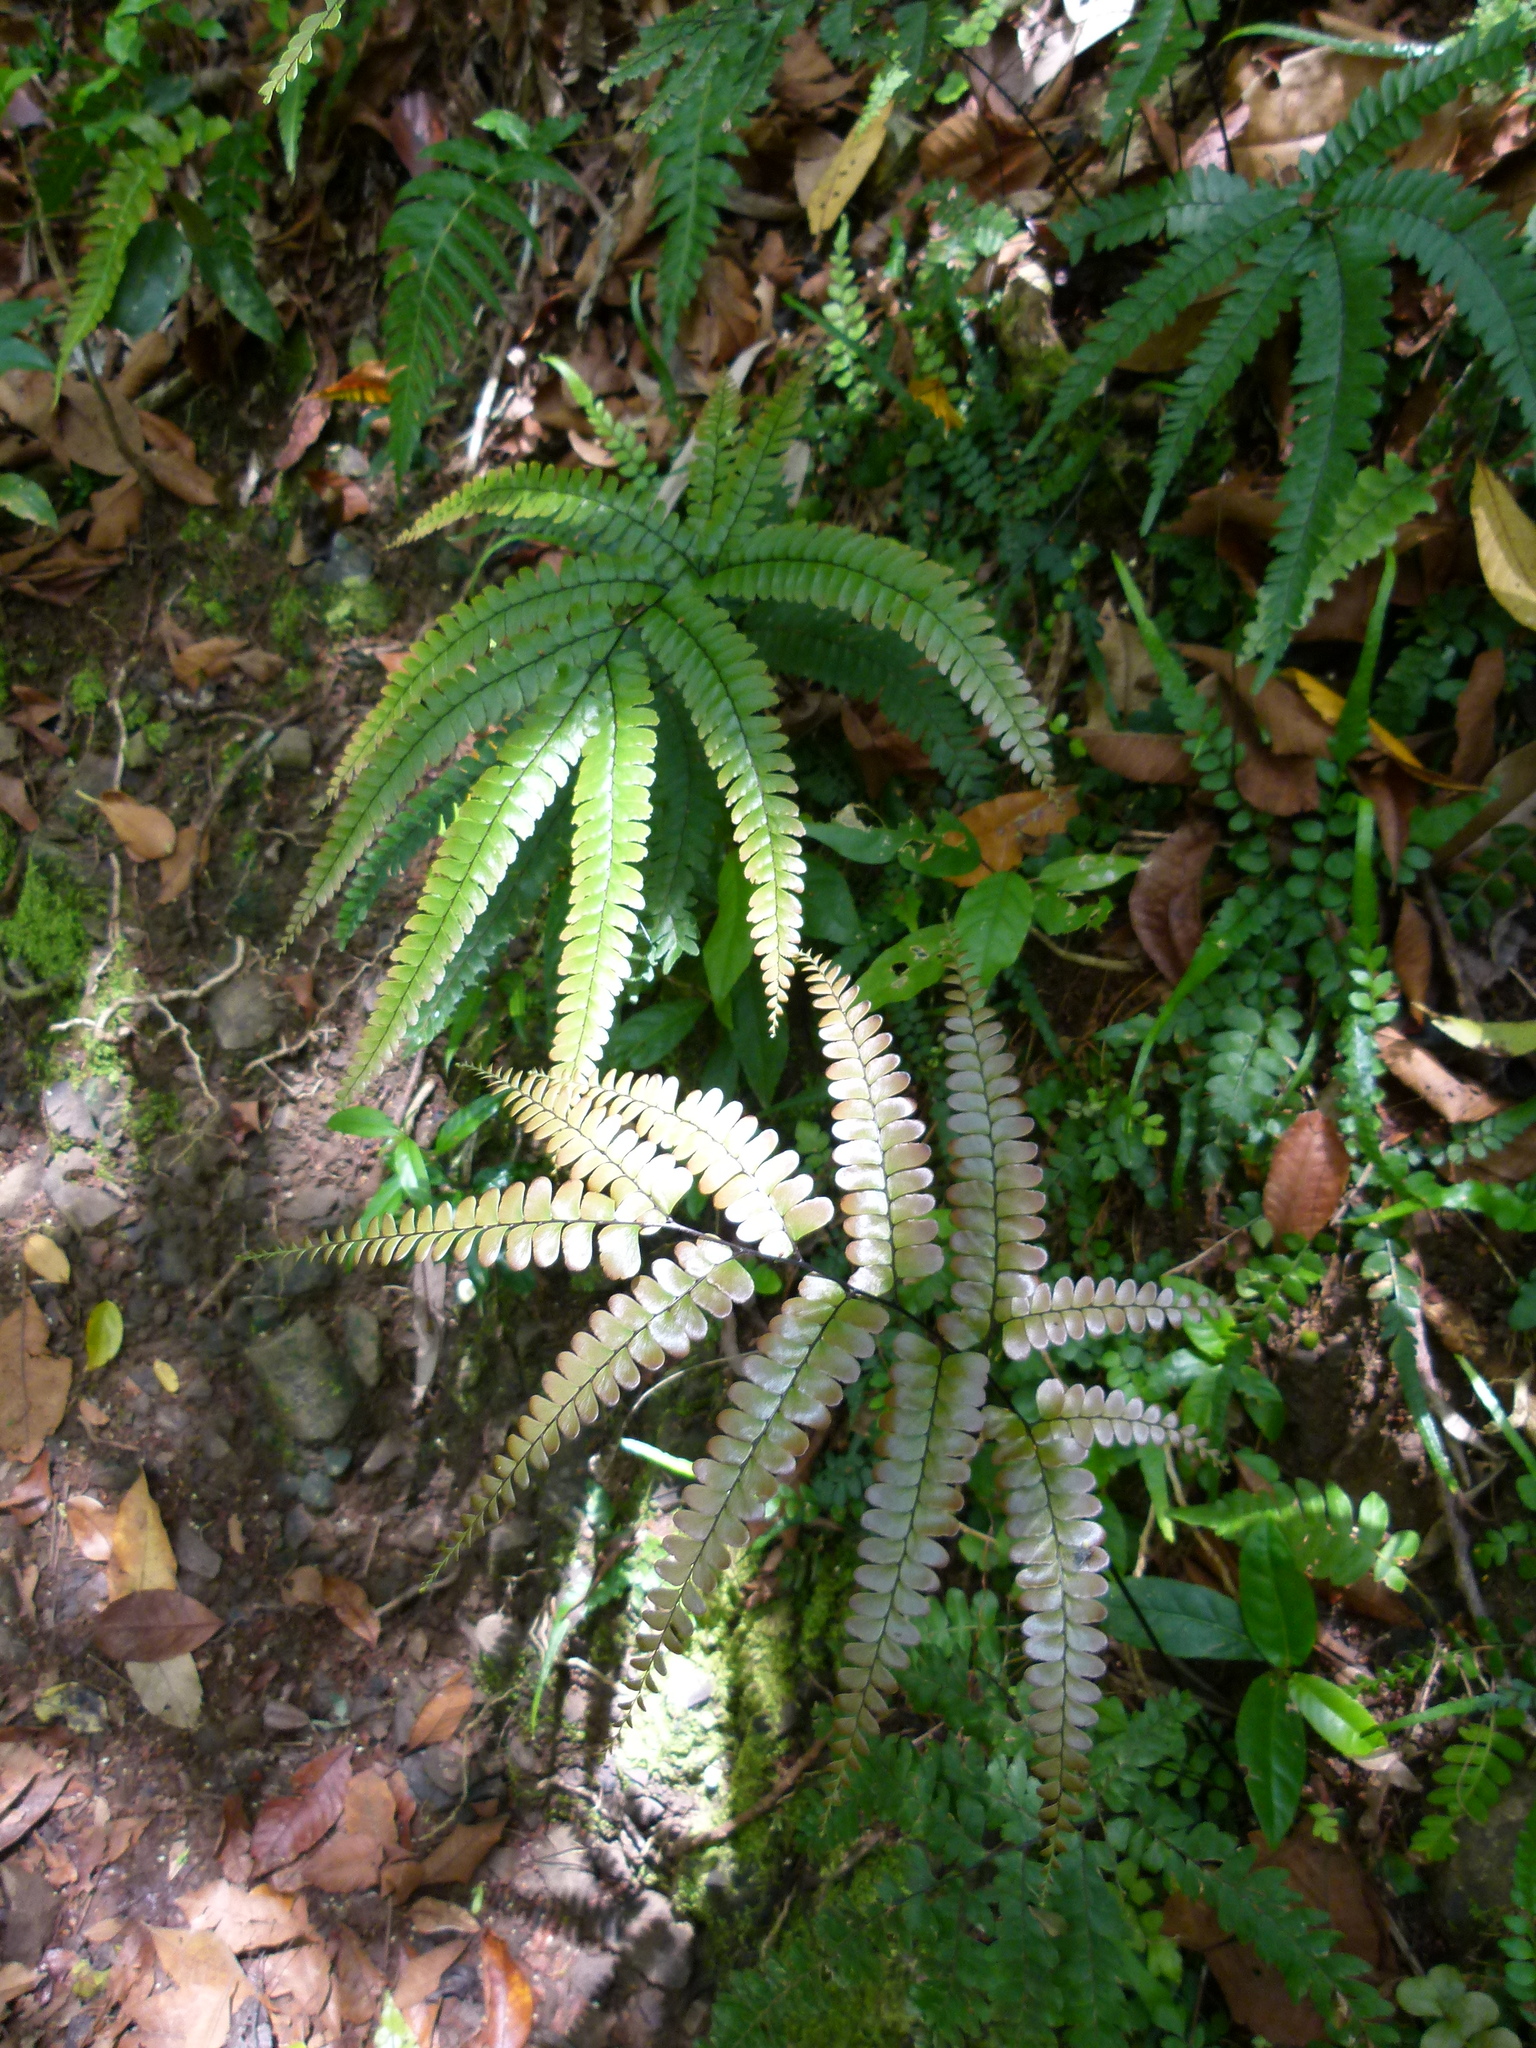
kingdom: Plantae
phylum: Tracheophyta
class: Polypodiopsida
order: Polypodiales
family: Pteridaceae
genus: Adiantum
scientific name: Adiantum pyramidale
